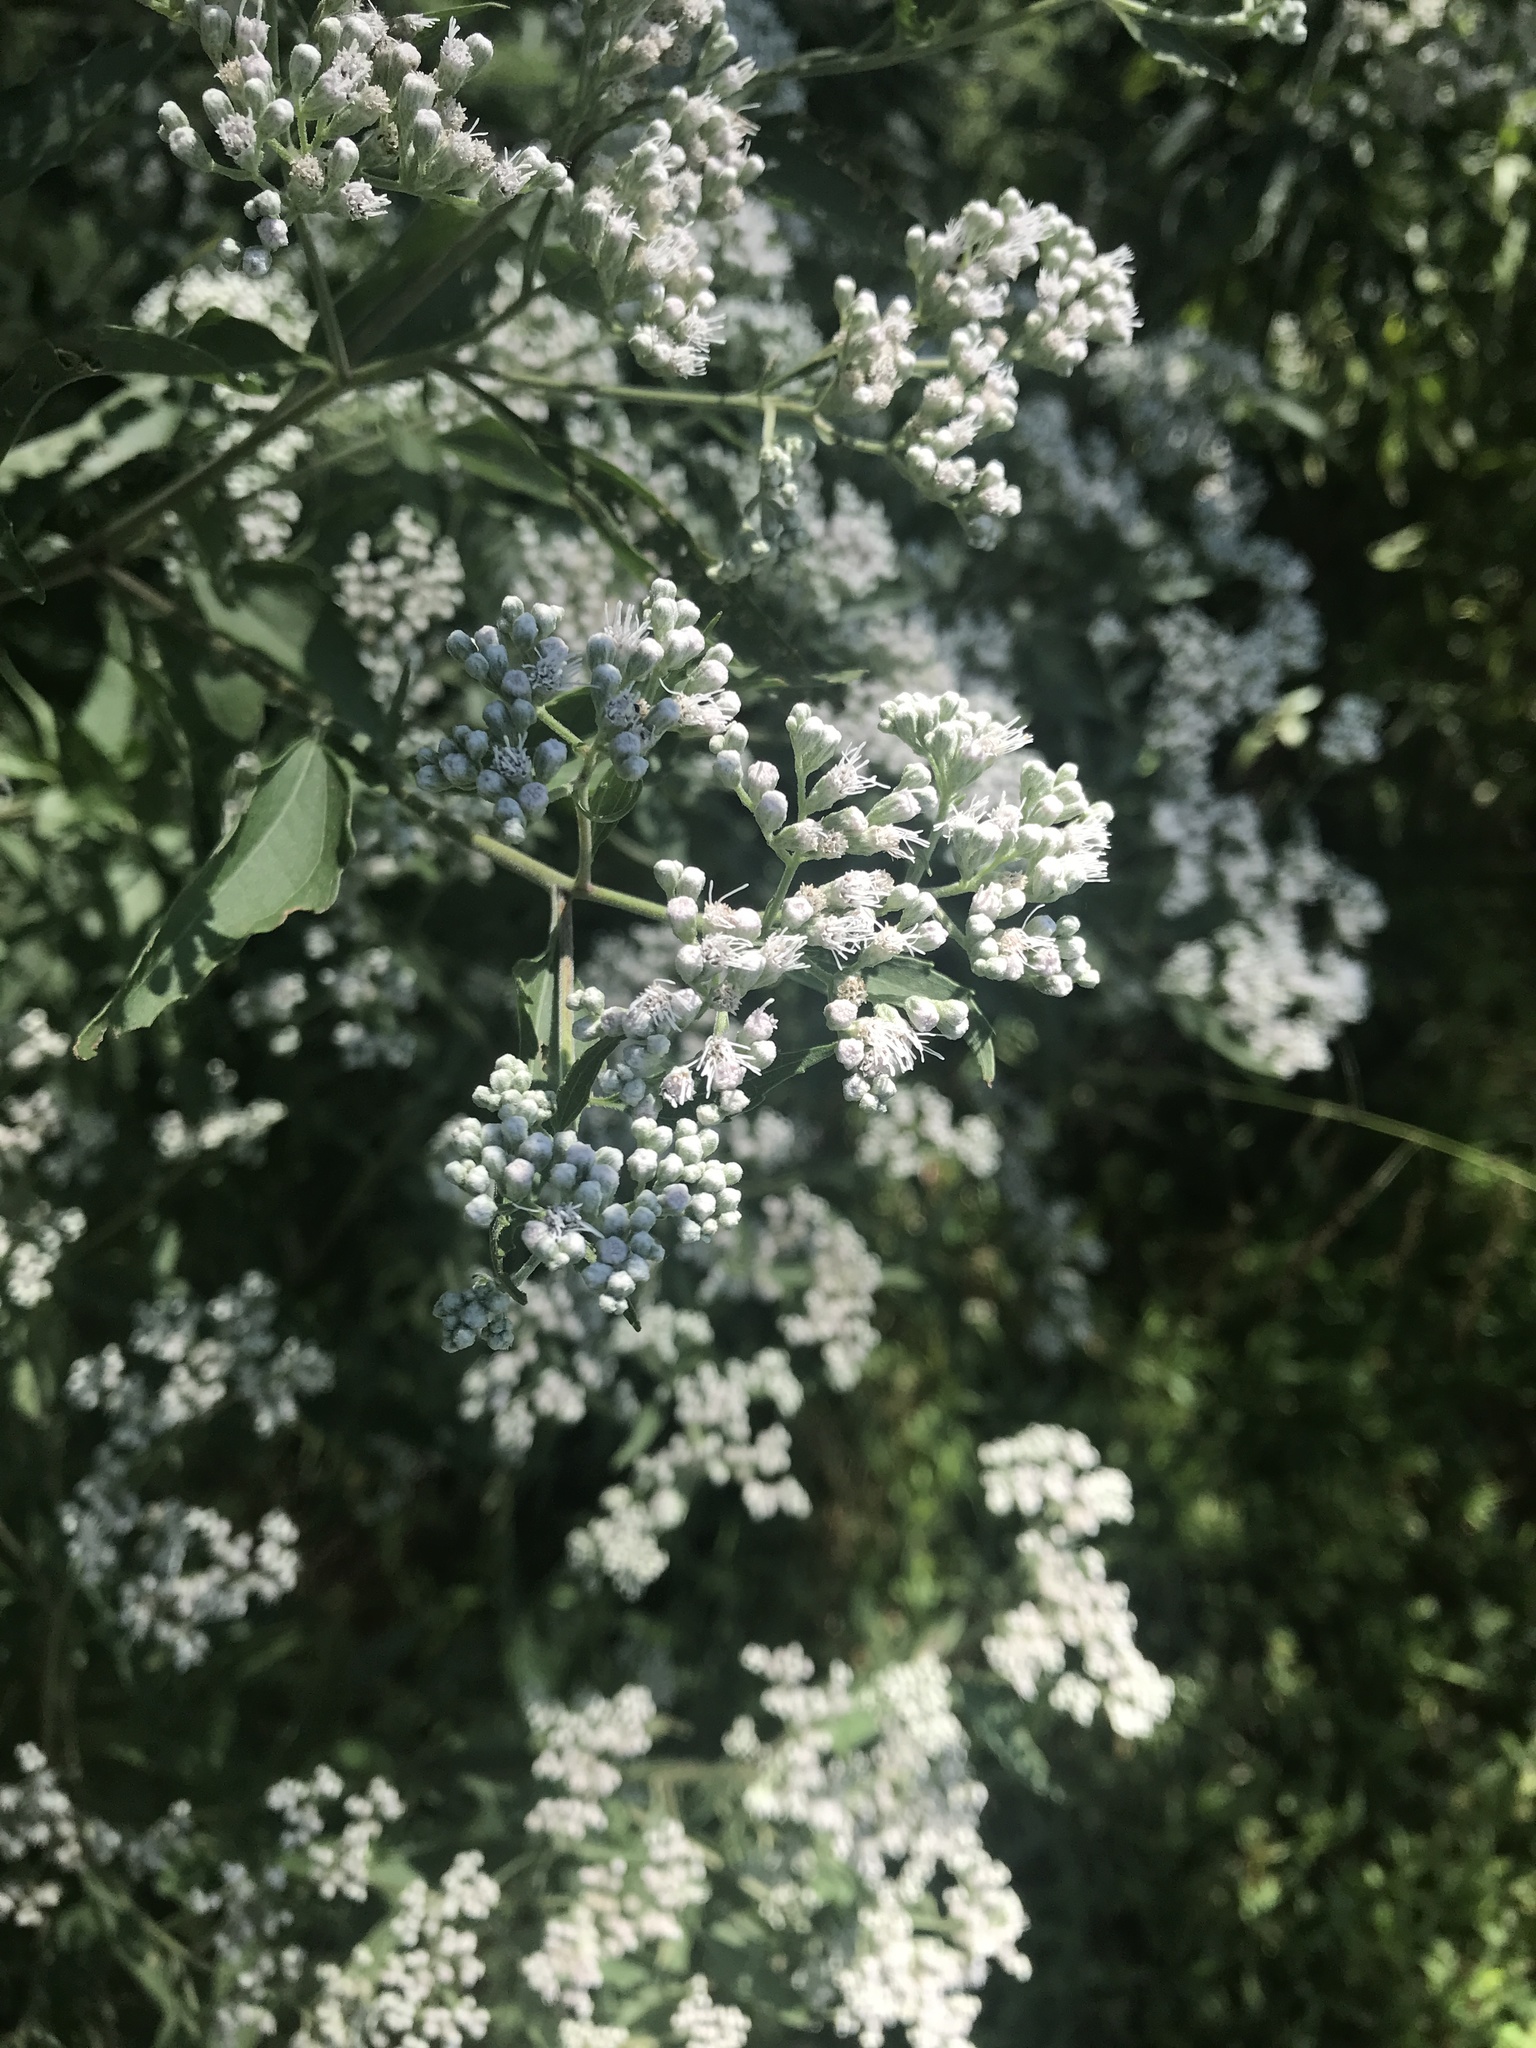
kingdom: Plantae
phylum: Tracheophyta
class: Magnoliopsida
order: Asterales
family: Asteraceae
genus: Eupatorium
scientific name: Eupatorium serotinum
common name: Late boneset
